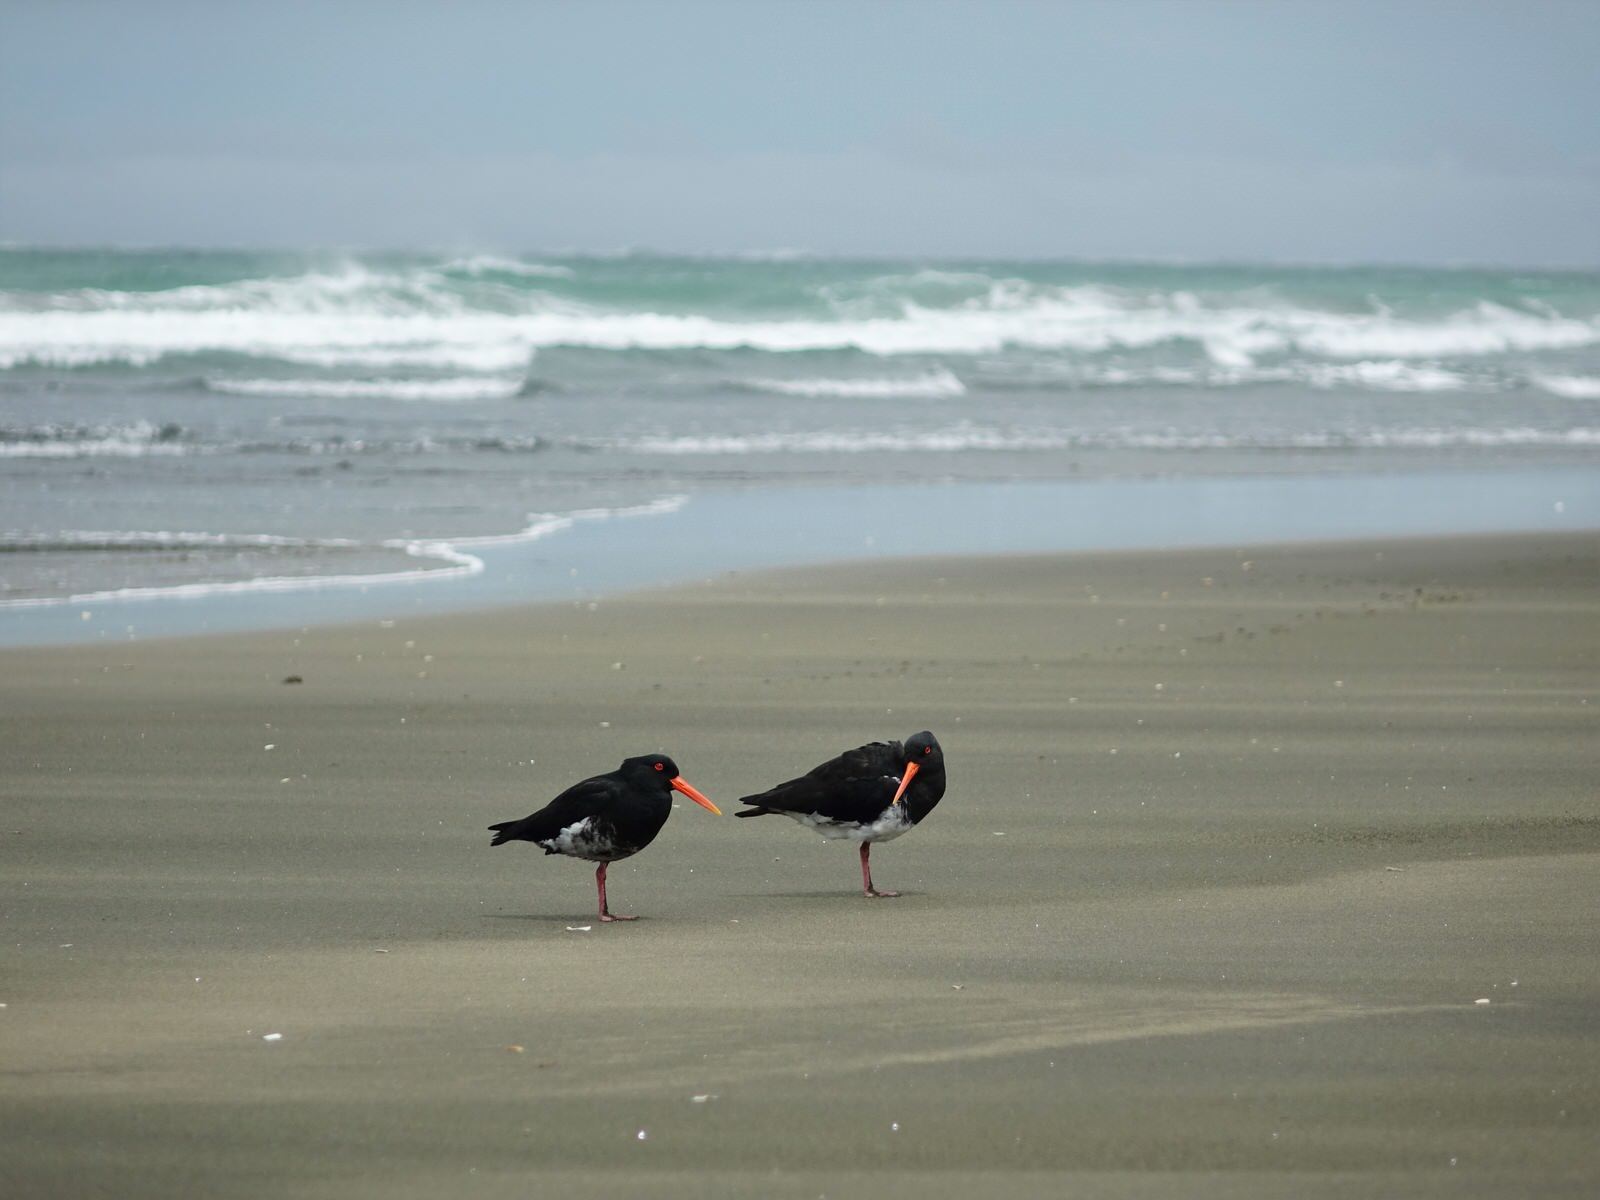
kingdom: Animalia
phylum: Chordata
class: Aves
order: Charadriiformes
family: Haematopodidae
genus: Haematopus
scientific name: Haematopus unicolor
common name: Variable oystercatcher
